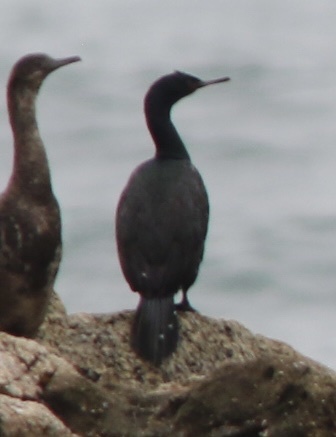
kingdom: Animalia
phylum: Chordata
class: Aves
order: Suliformes
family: Phalacrocoracidae
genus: Phalacrocorax
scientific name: Phalacrocorax pelagicus
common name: Pelagic cormorant
